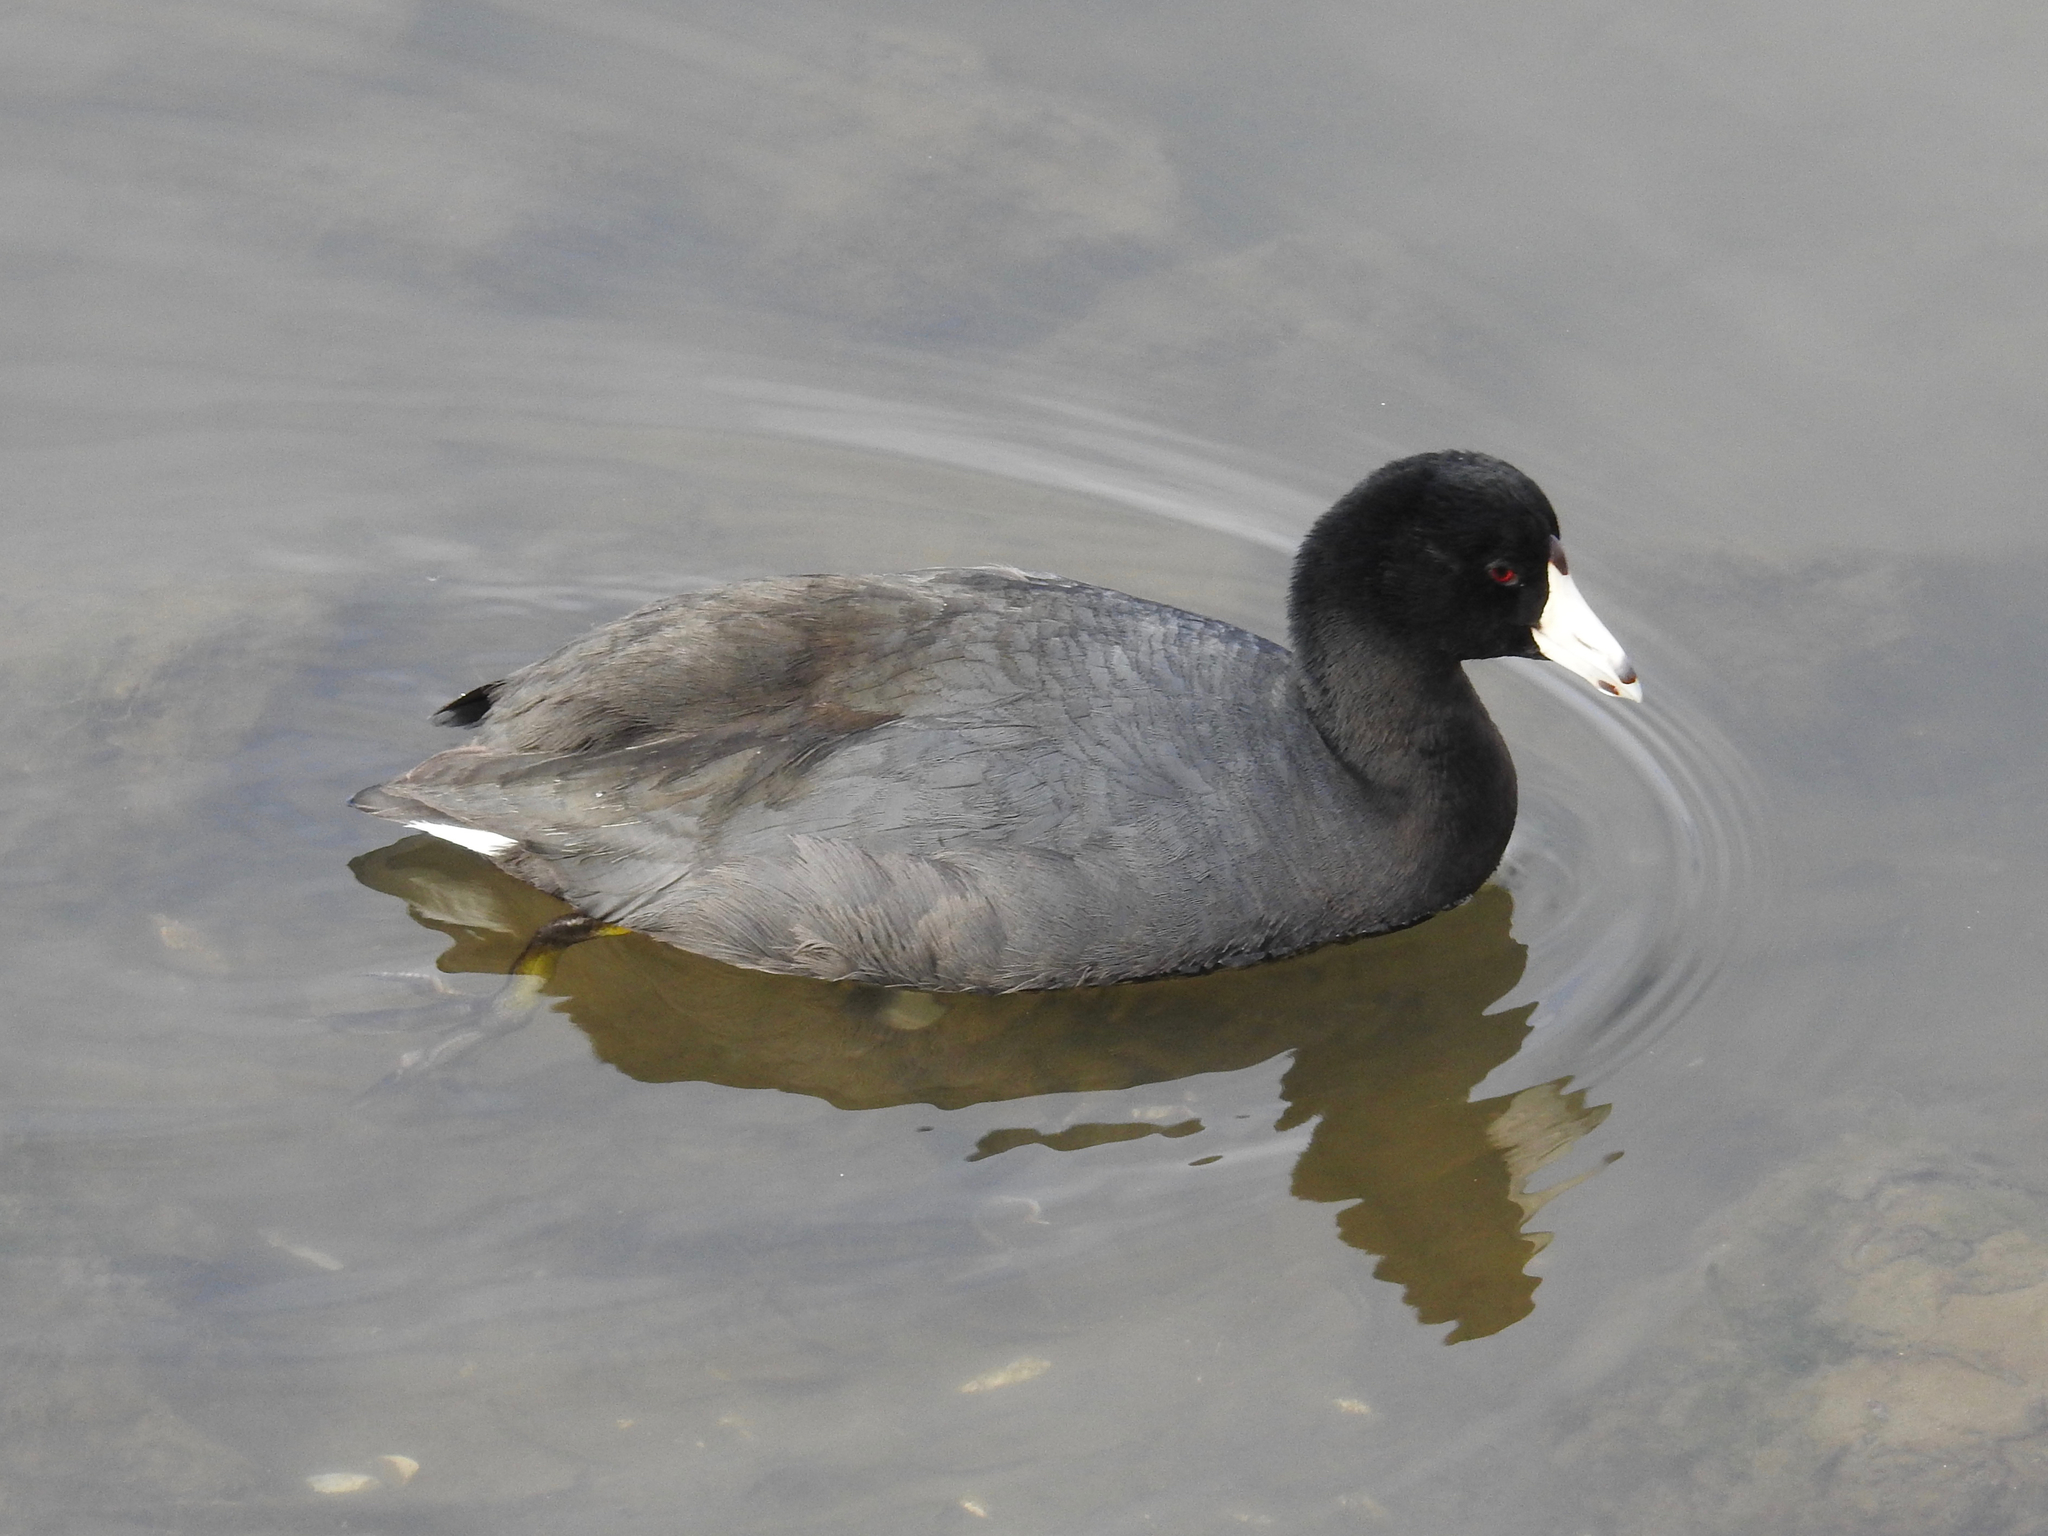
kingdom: Animalia
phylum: Chordata
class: Aves
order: Gruiformes
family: Rallidae
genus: Fulica
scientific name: Fulica americana
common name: American coot
